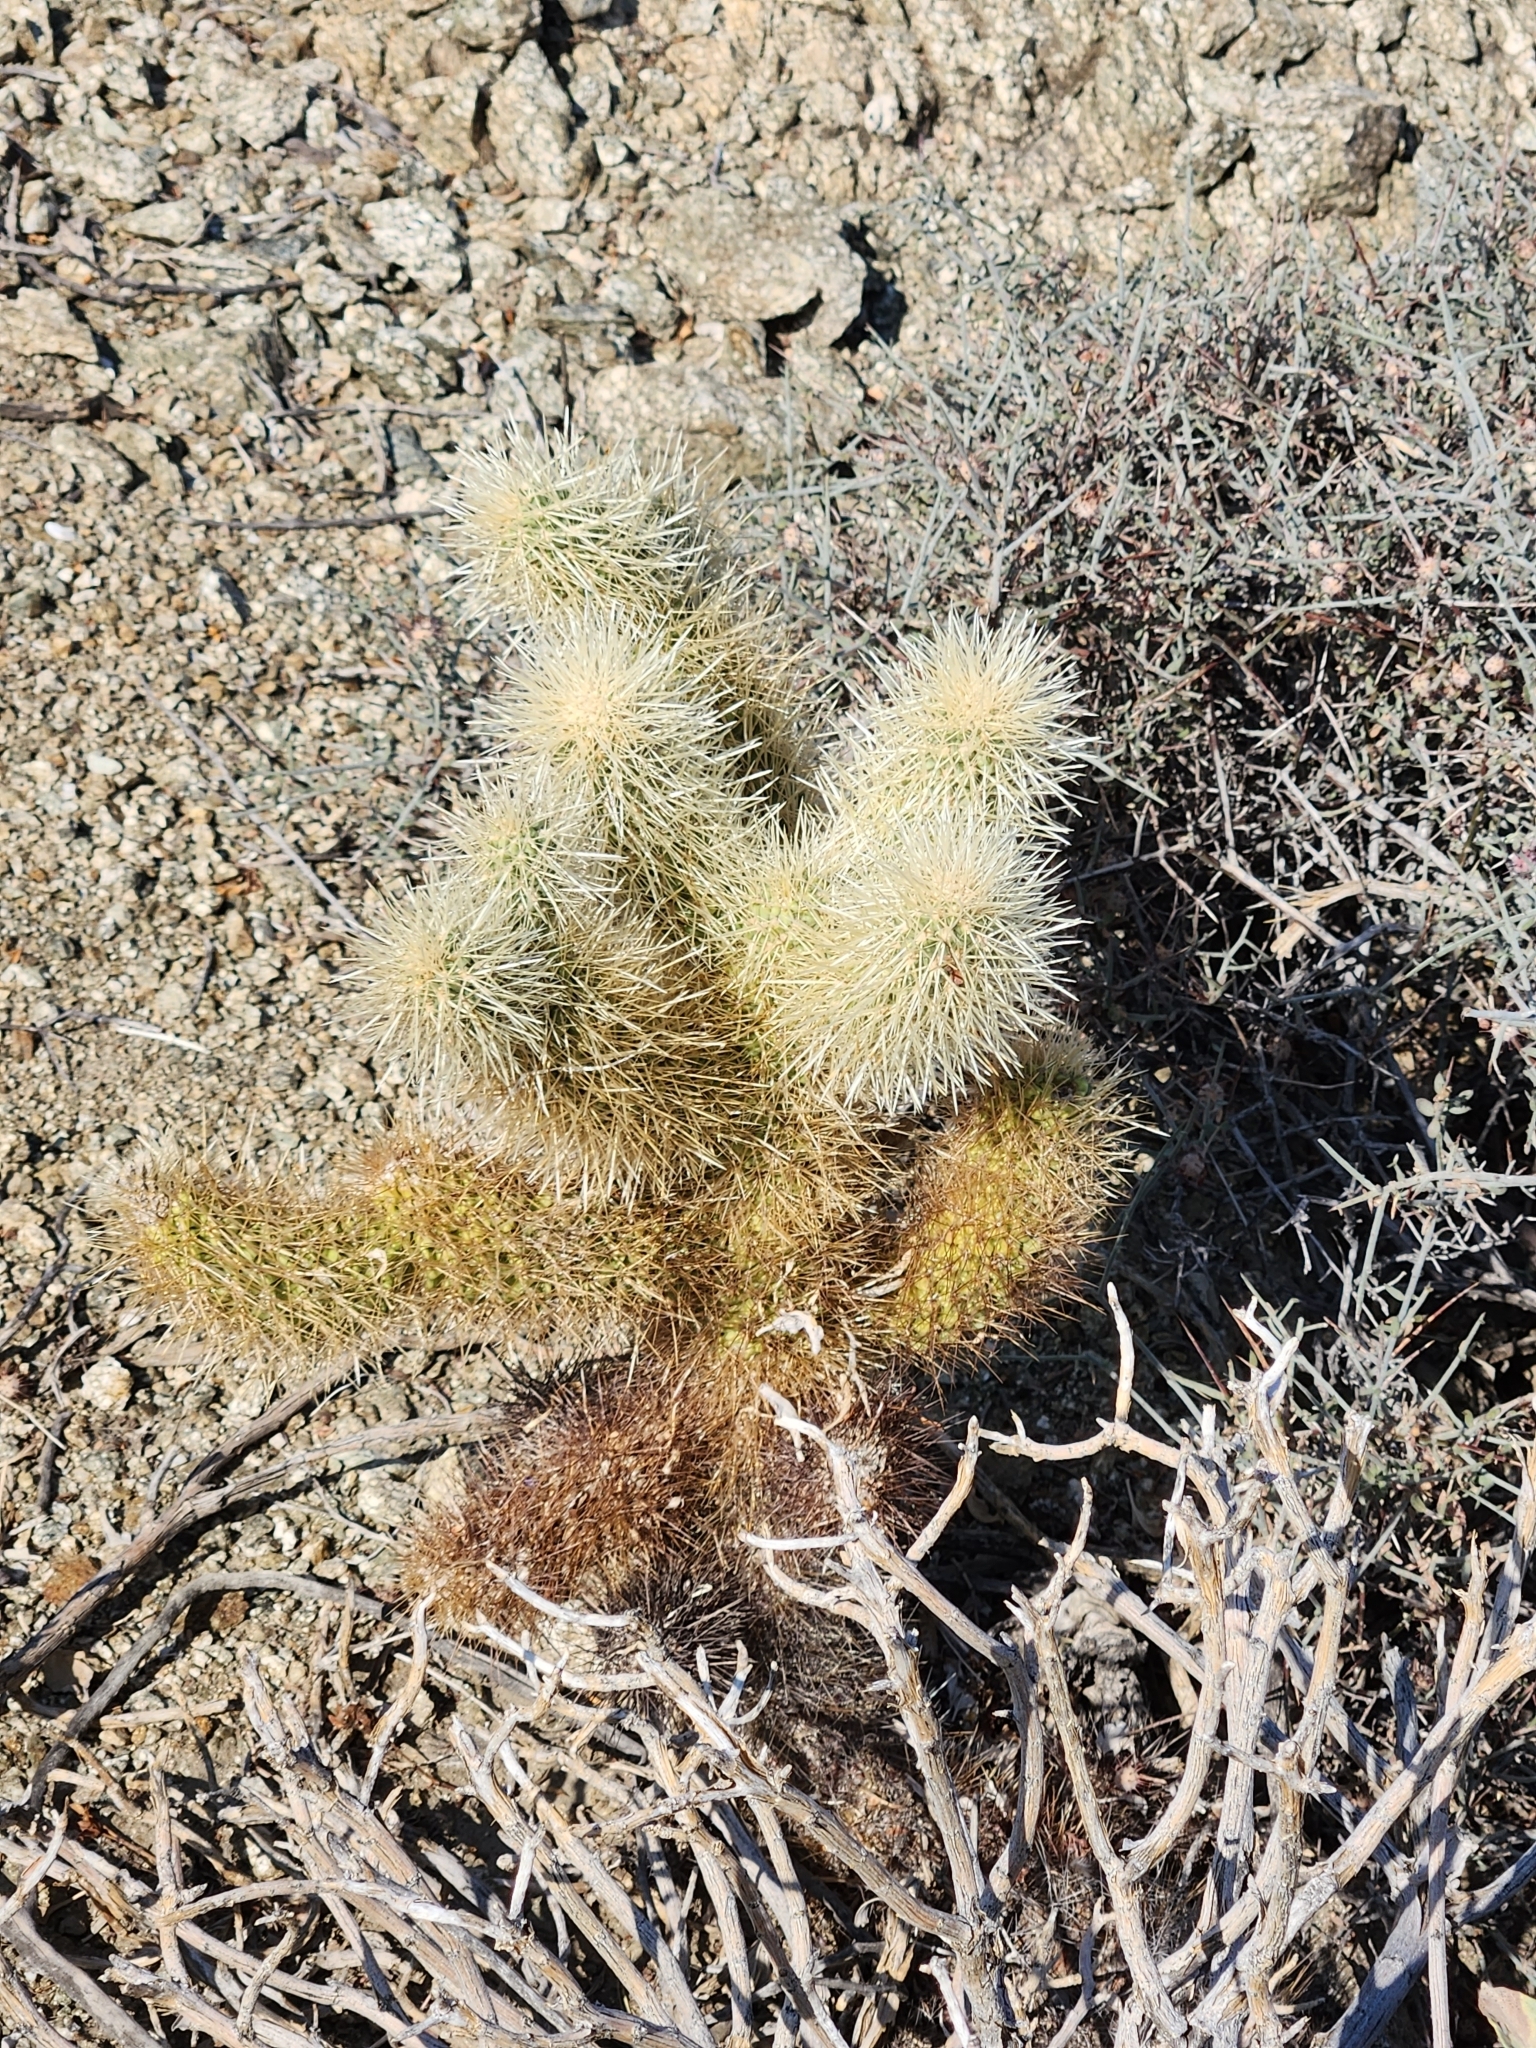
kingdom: Plantae
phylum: Tracheophyta
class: Magnoliopsida
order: Caryophyllales
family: Cactaceae
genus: Cylindropuntia
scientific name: Cylindropuntia fosbergii
